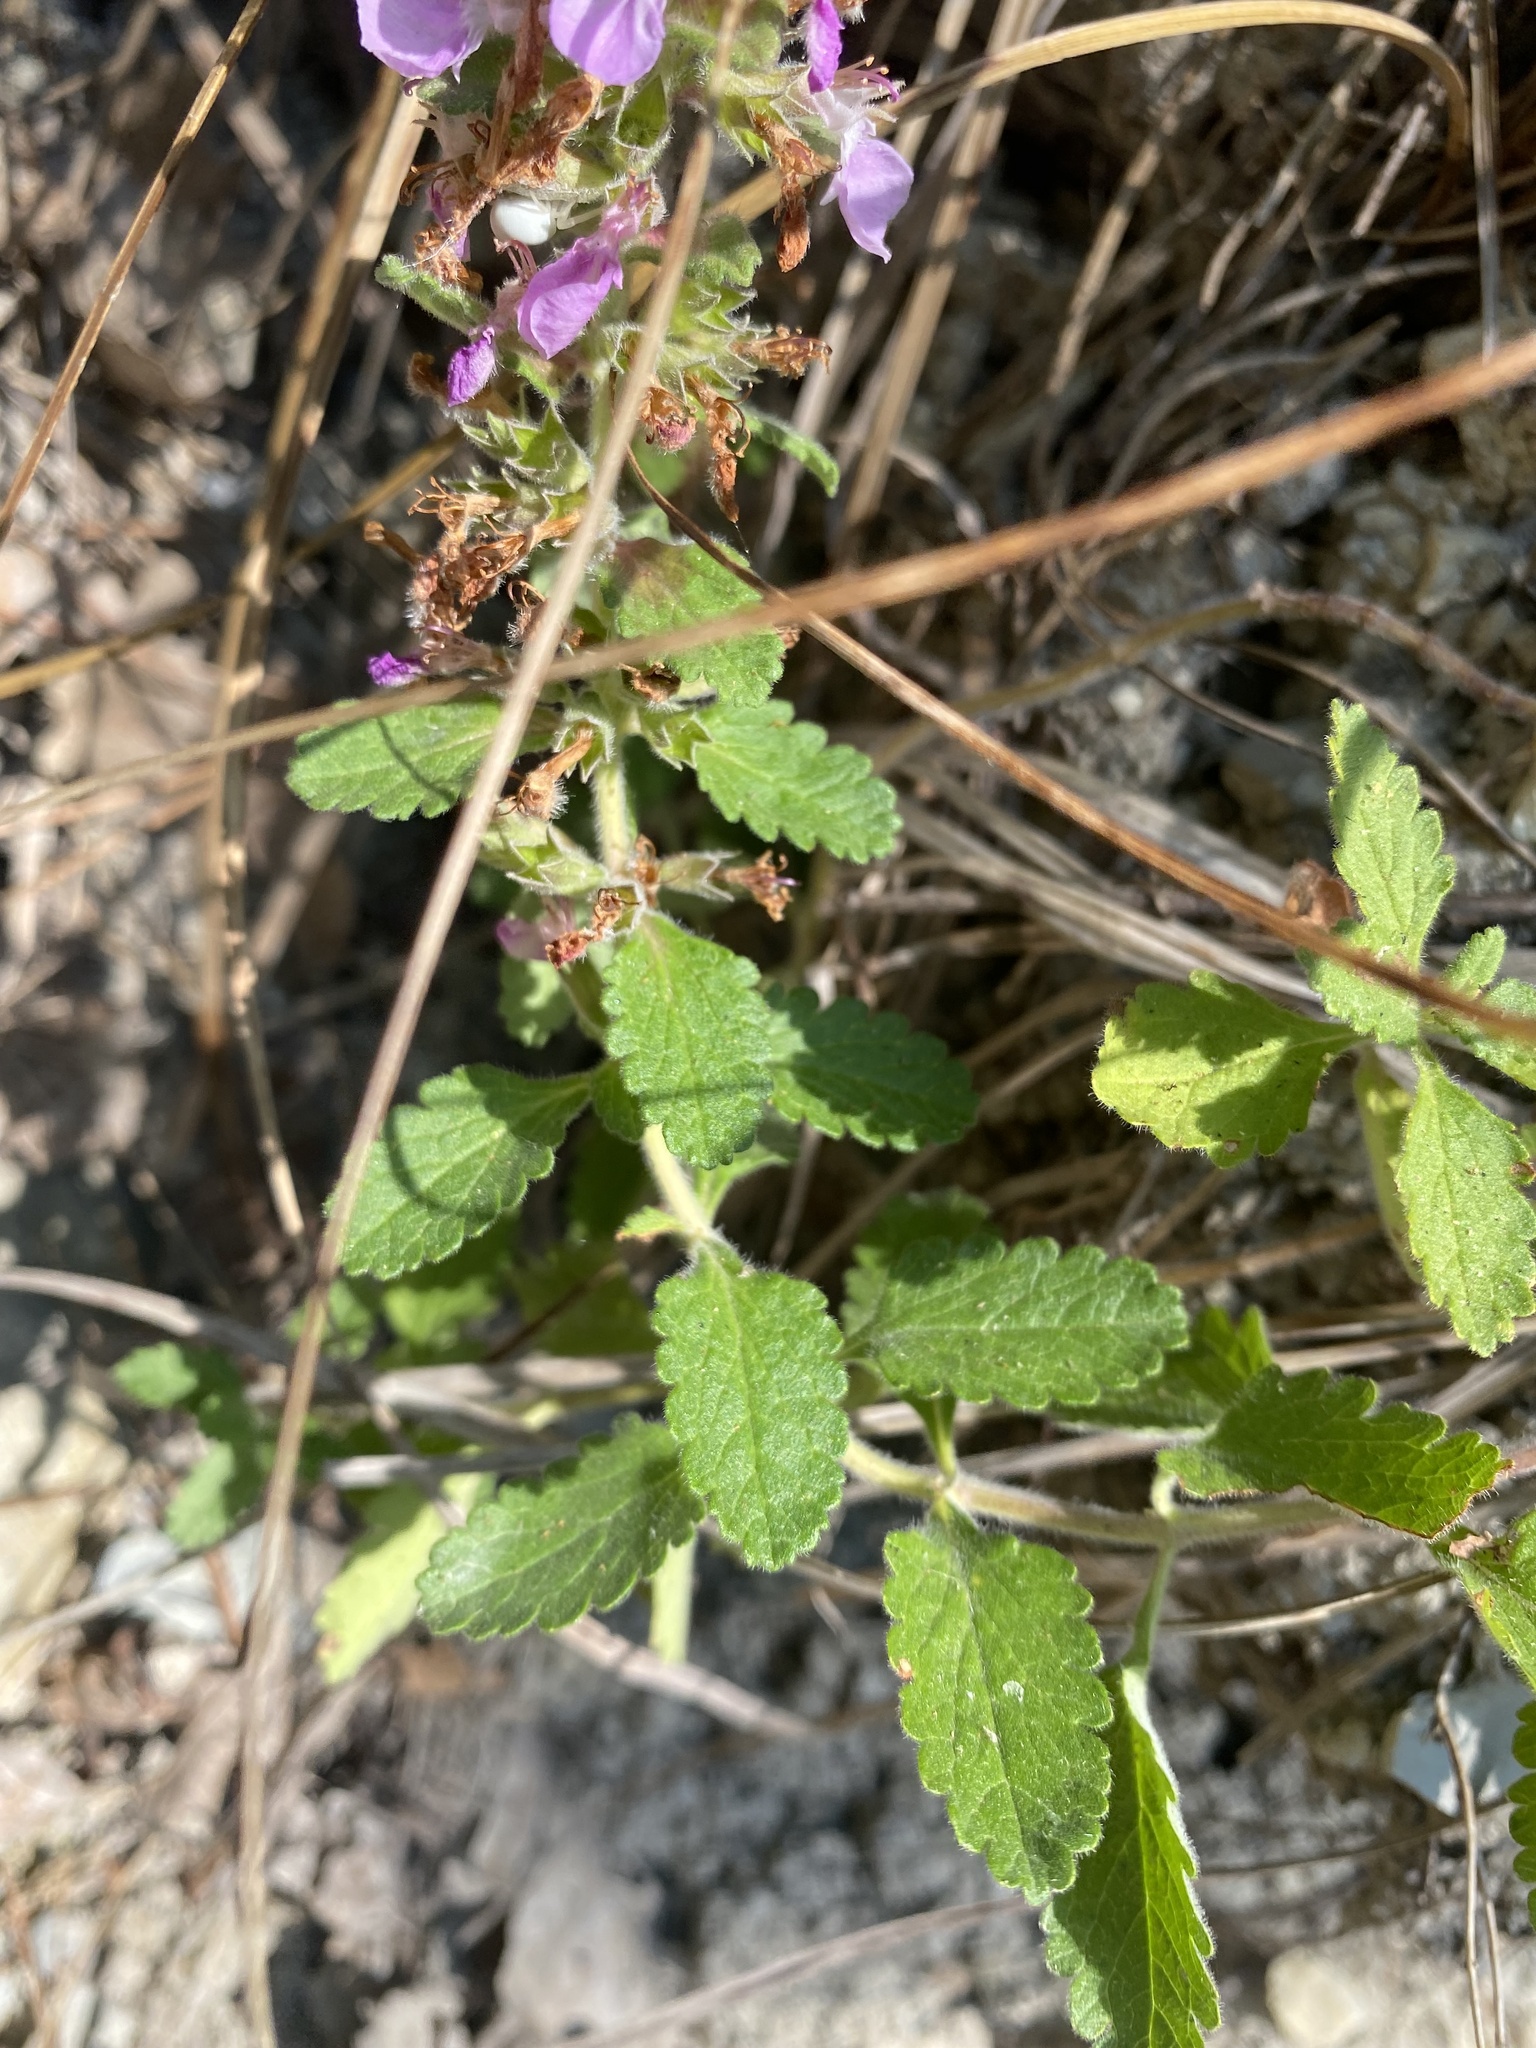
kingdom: Plantae
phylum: Tracheophyta
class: Magnoliopsida
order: Lamiales
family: Lamiaceae
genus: Teucrium
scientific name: Teucrium chamaedrys
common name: Wall germander
